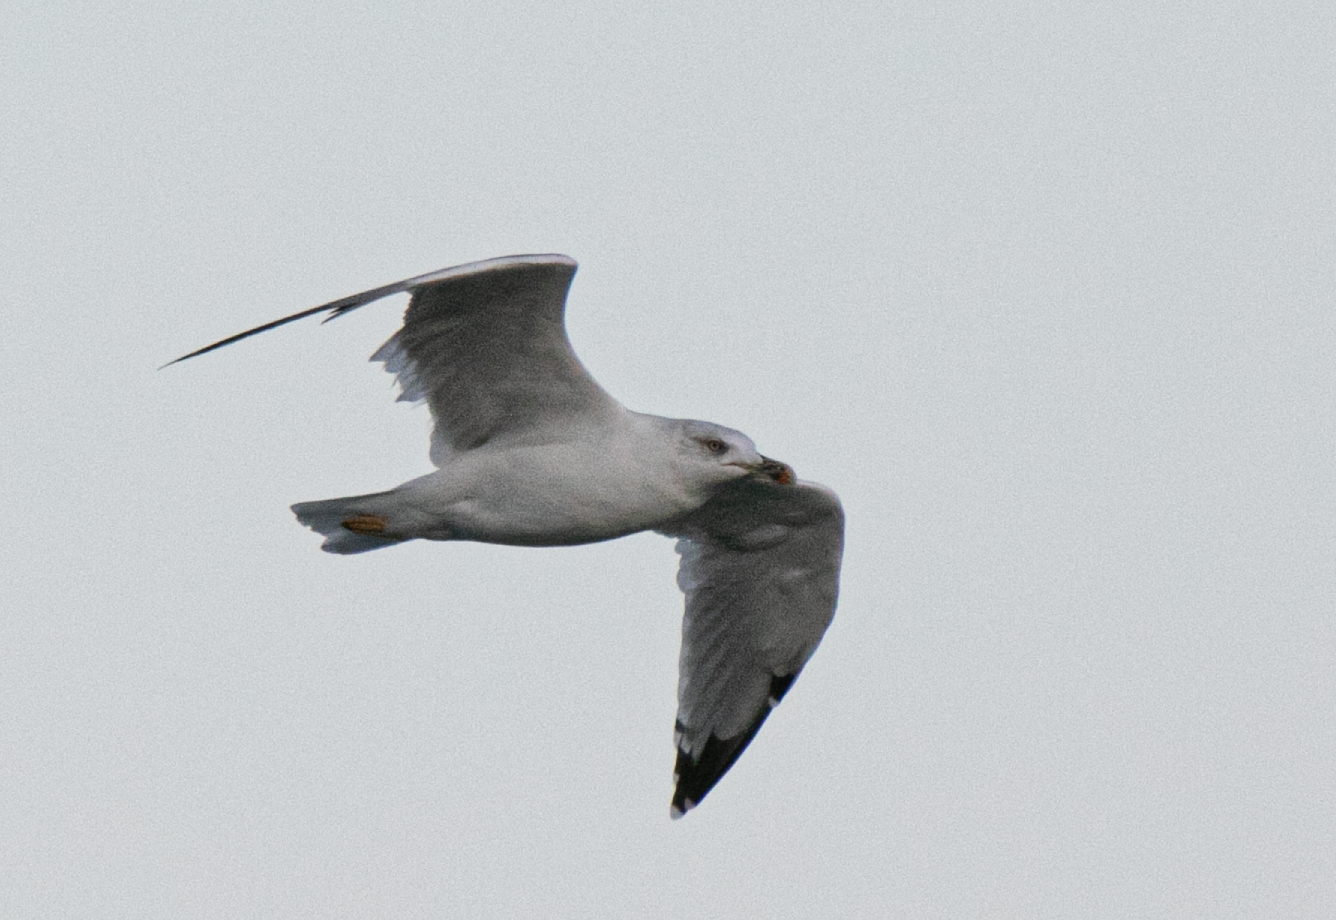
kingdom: Animalia
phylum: Chordata
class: Aves
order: Charadriiformes
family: Laridae
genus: Larus
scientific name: Larus michahellis
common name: Yellow-legged gull
